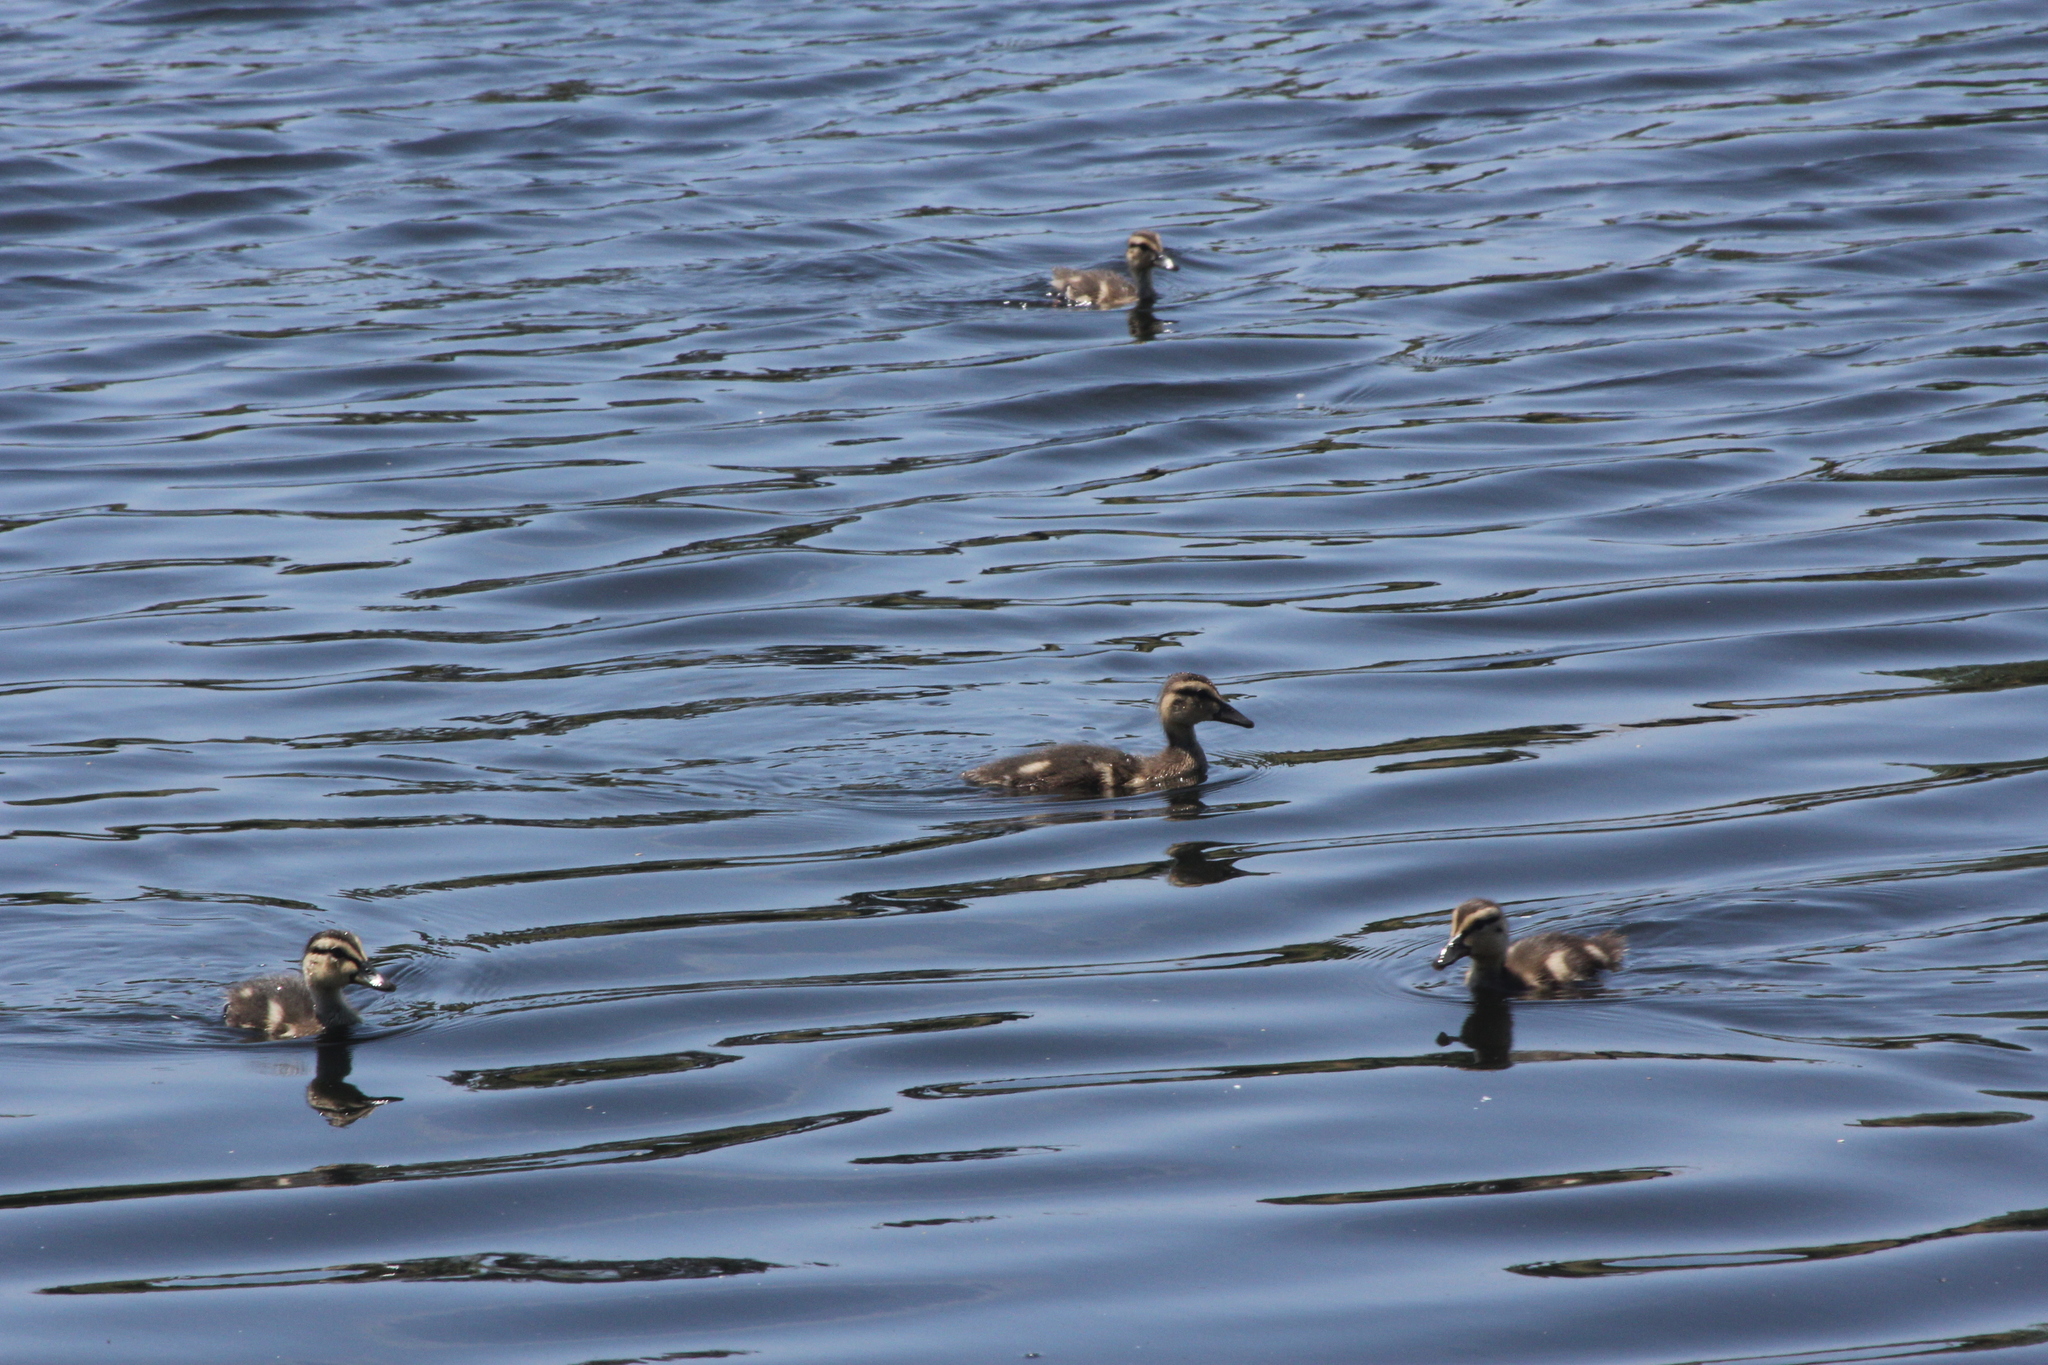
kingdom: Animalia
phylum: Chordata
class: Aves
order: Anseriformes
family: Anatidae
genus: Anas
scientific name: Anas platyrhynchos
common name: Mallard
